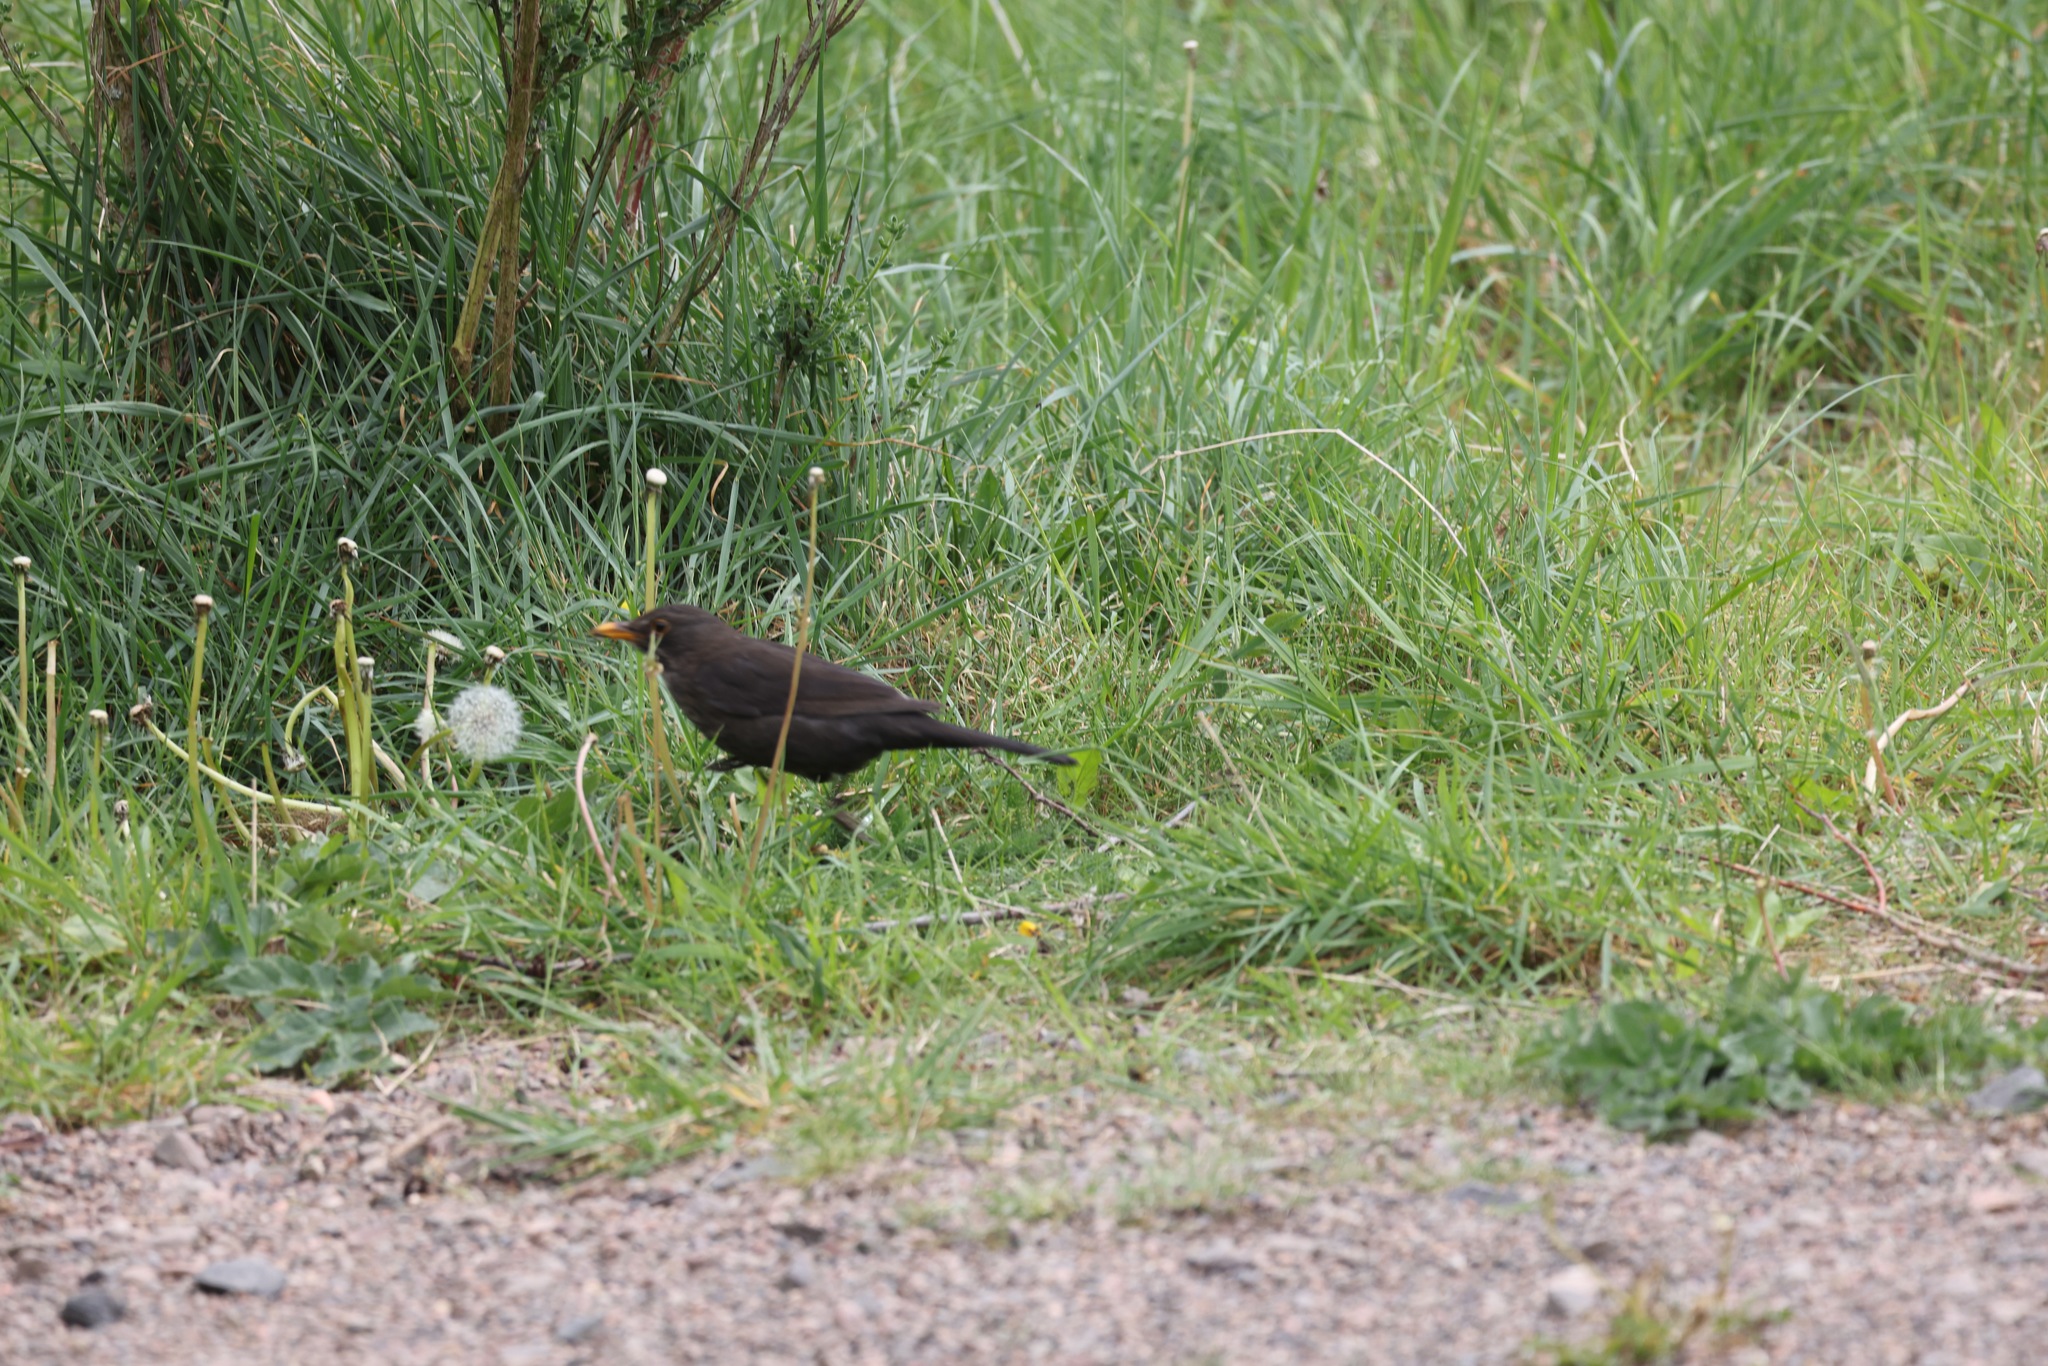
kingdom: Animalia
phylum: Chordata
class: Aves
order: Passeriformes
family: Turdidae
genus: Turdus
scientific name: Turdus merula
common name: Common blackbird
